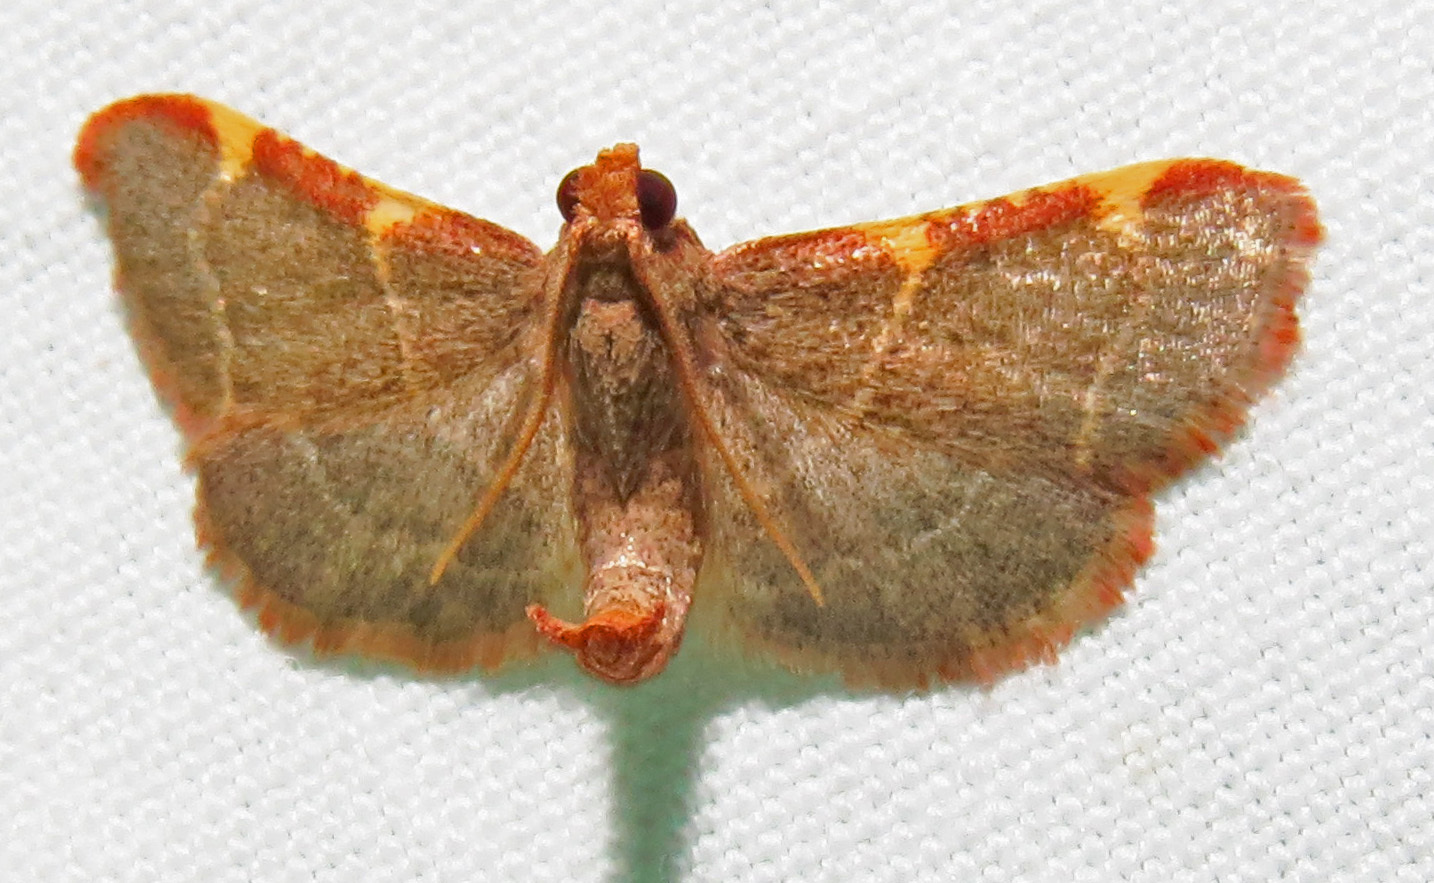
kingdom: Animalia
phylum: Arthropoda
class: Insecta
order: Lepidoptera
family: Pyralidae
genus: Hypsopygia
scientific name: Hypsopygia binodulalis
